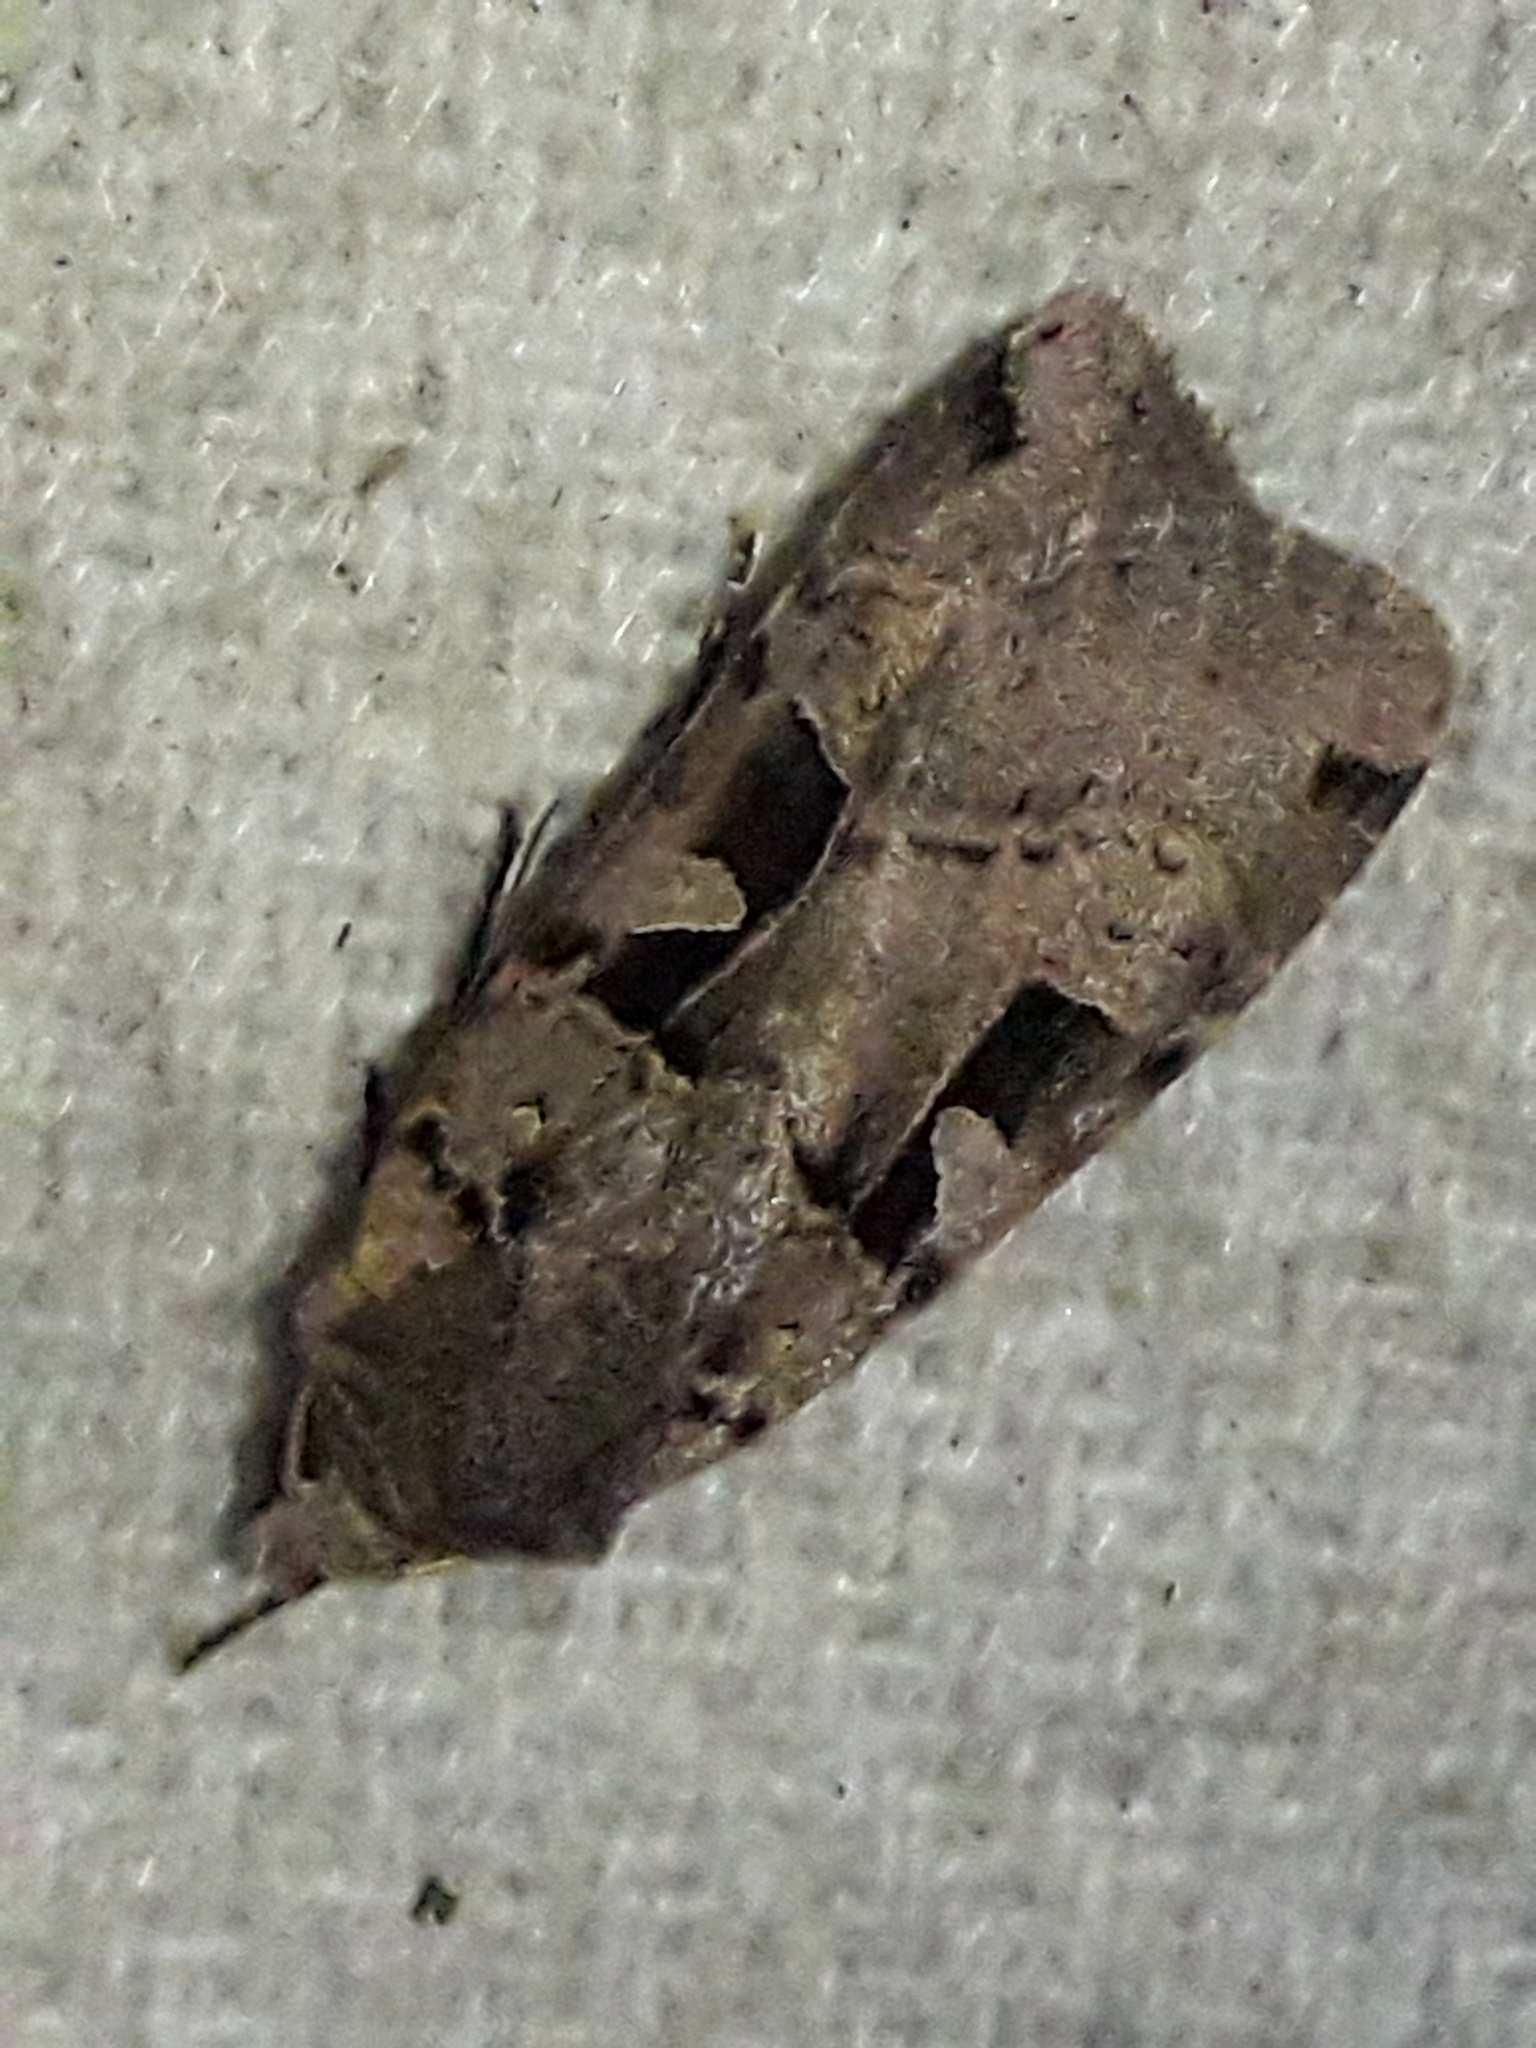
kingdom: Animalia
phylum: Arthropoda
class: Insecta
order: Lepidoptera
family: Noctuidae
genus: Xestia
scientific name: Xestia triangulum
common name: Double square-spot
